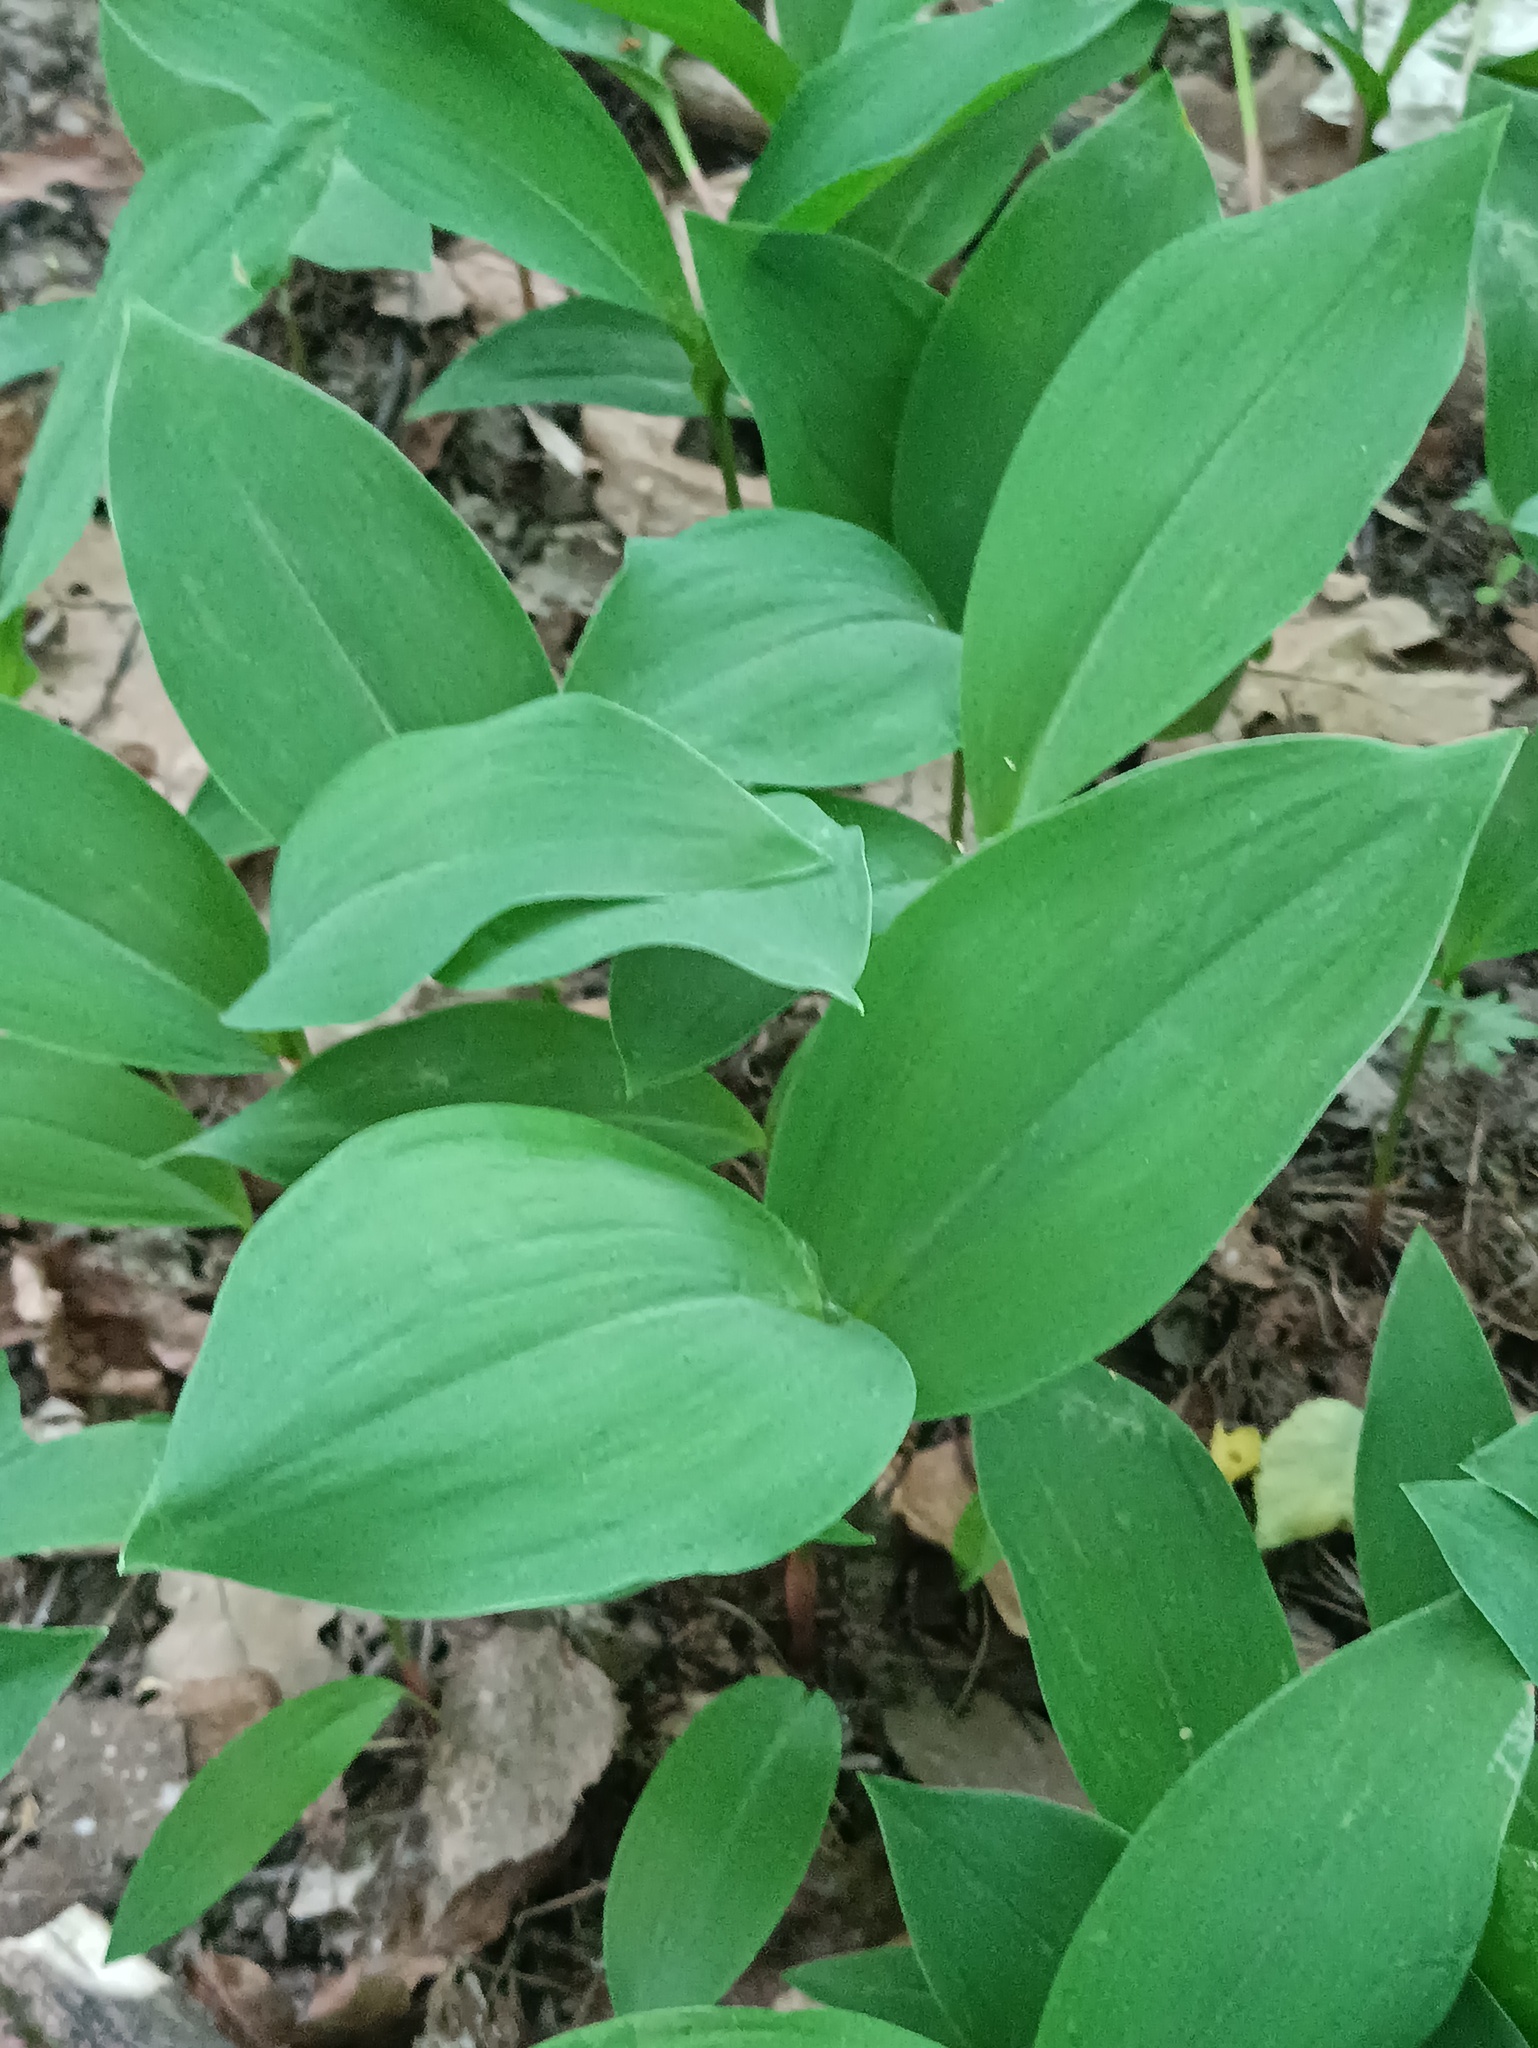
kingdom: Plantae
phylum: Tracheophyta
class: Liliopsida
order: Asparagales
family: Asparagaceae
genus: Convallaria
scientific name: Convallaria majalis
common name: Lily-of-the-valley
